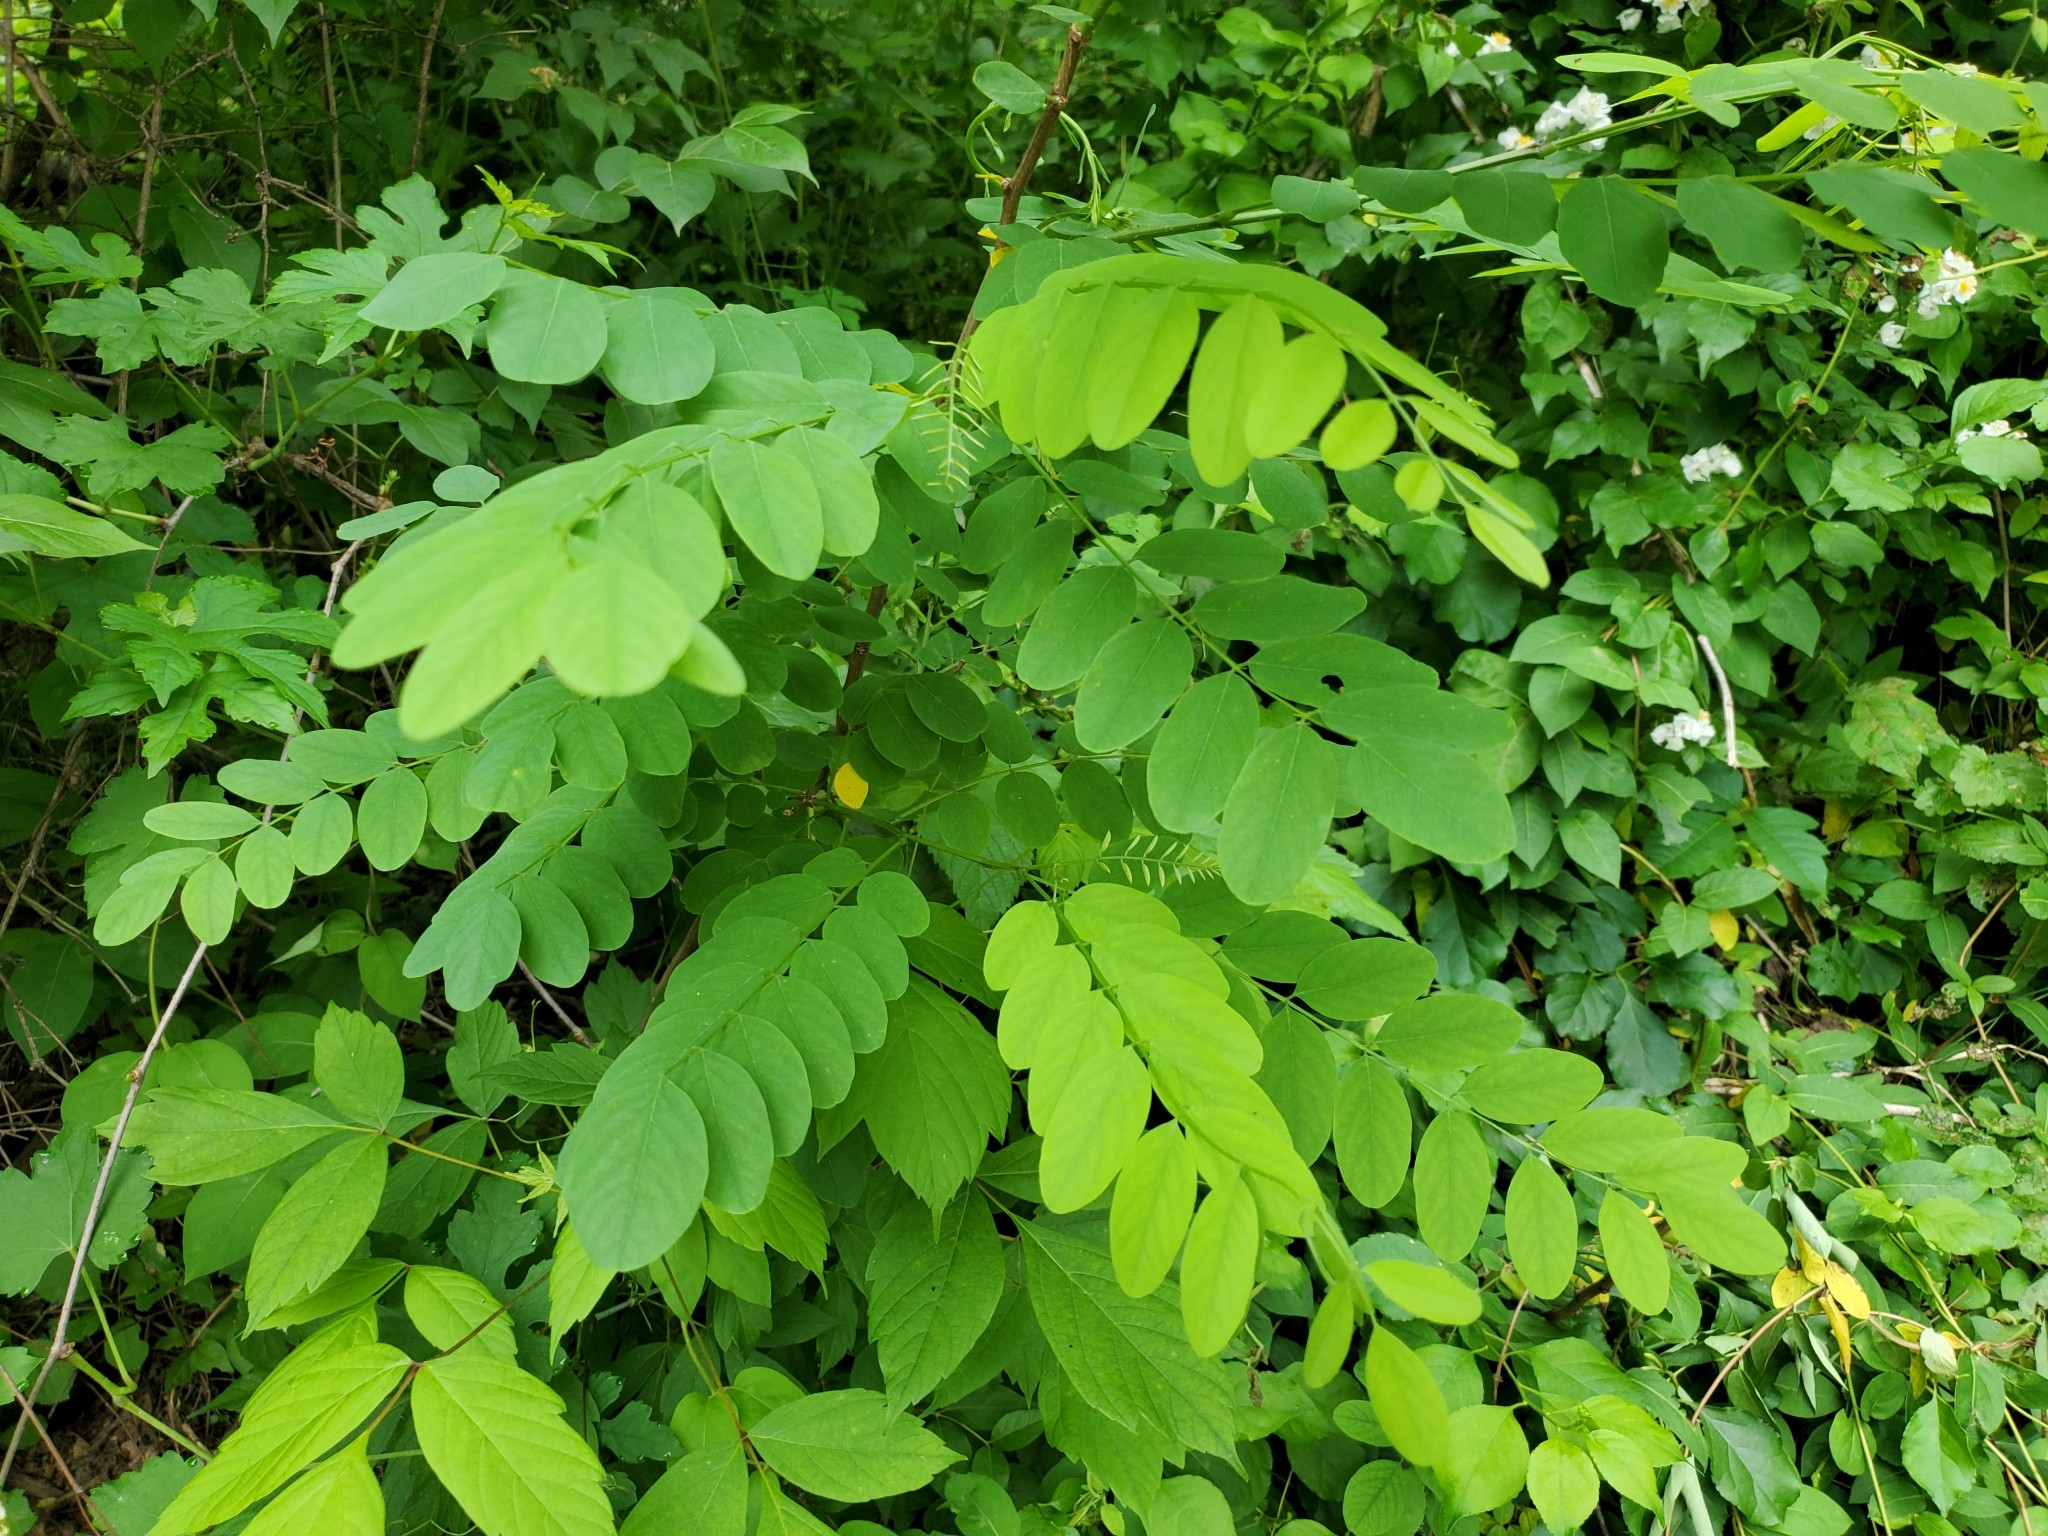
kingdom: Plantae
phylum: Tracheophyta
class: Magnoliopsida
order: Fabales
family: Fabaceae
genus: Robinia
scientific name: Robinia pseudoacacia
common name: Black locust
